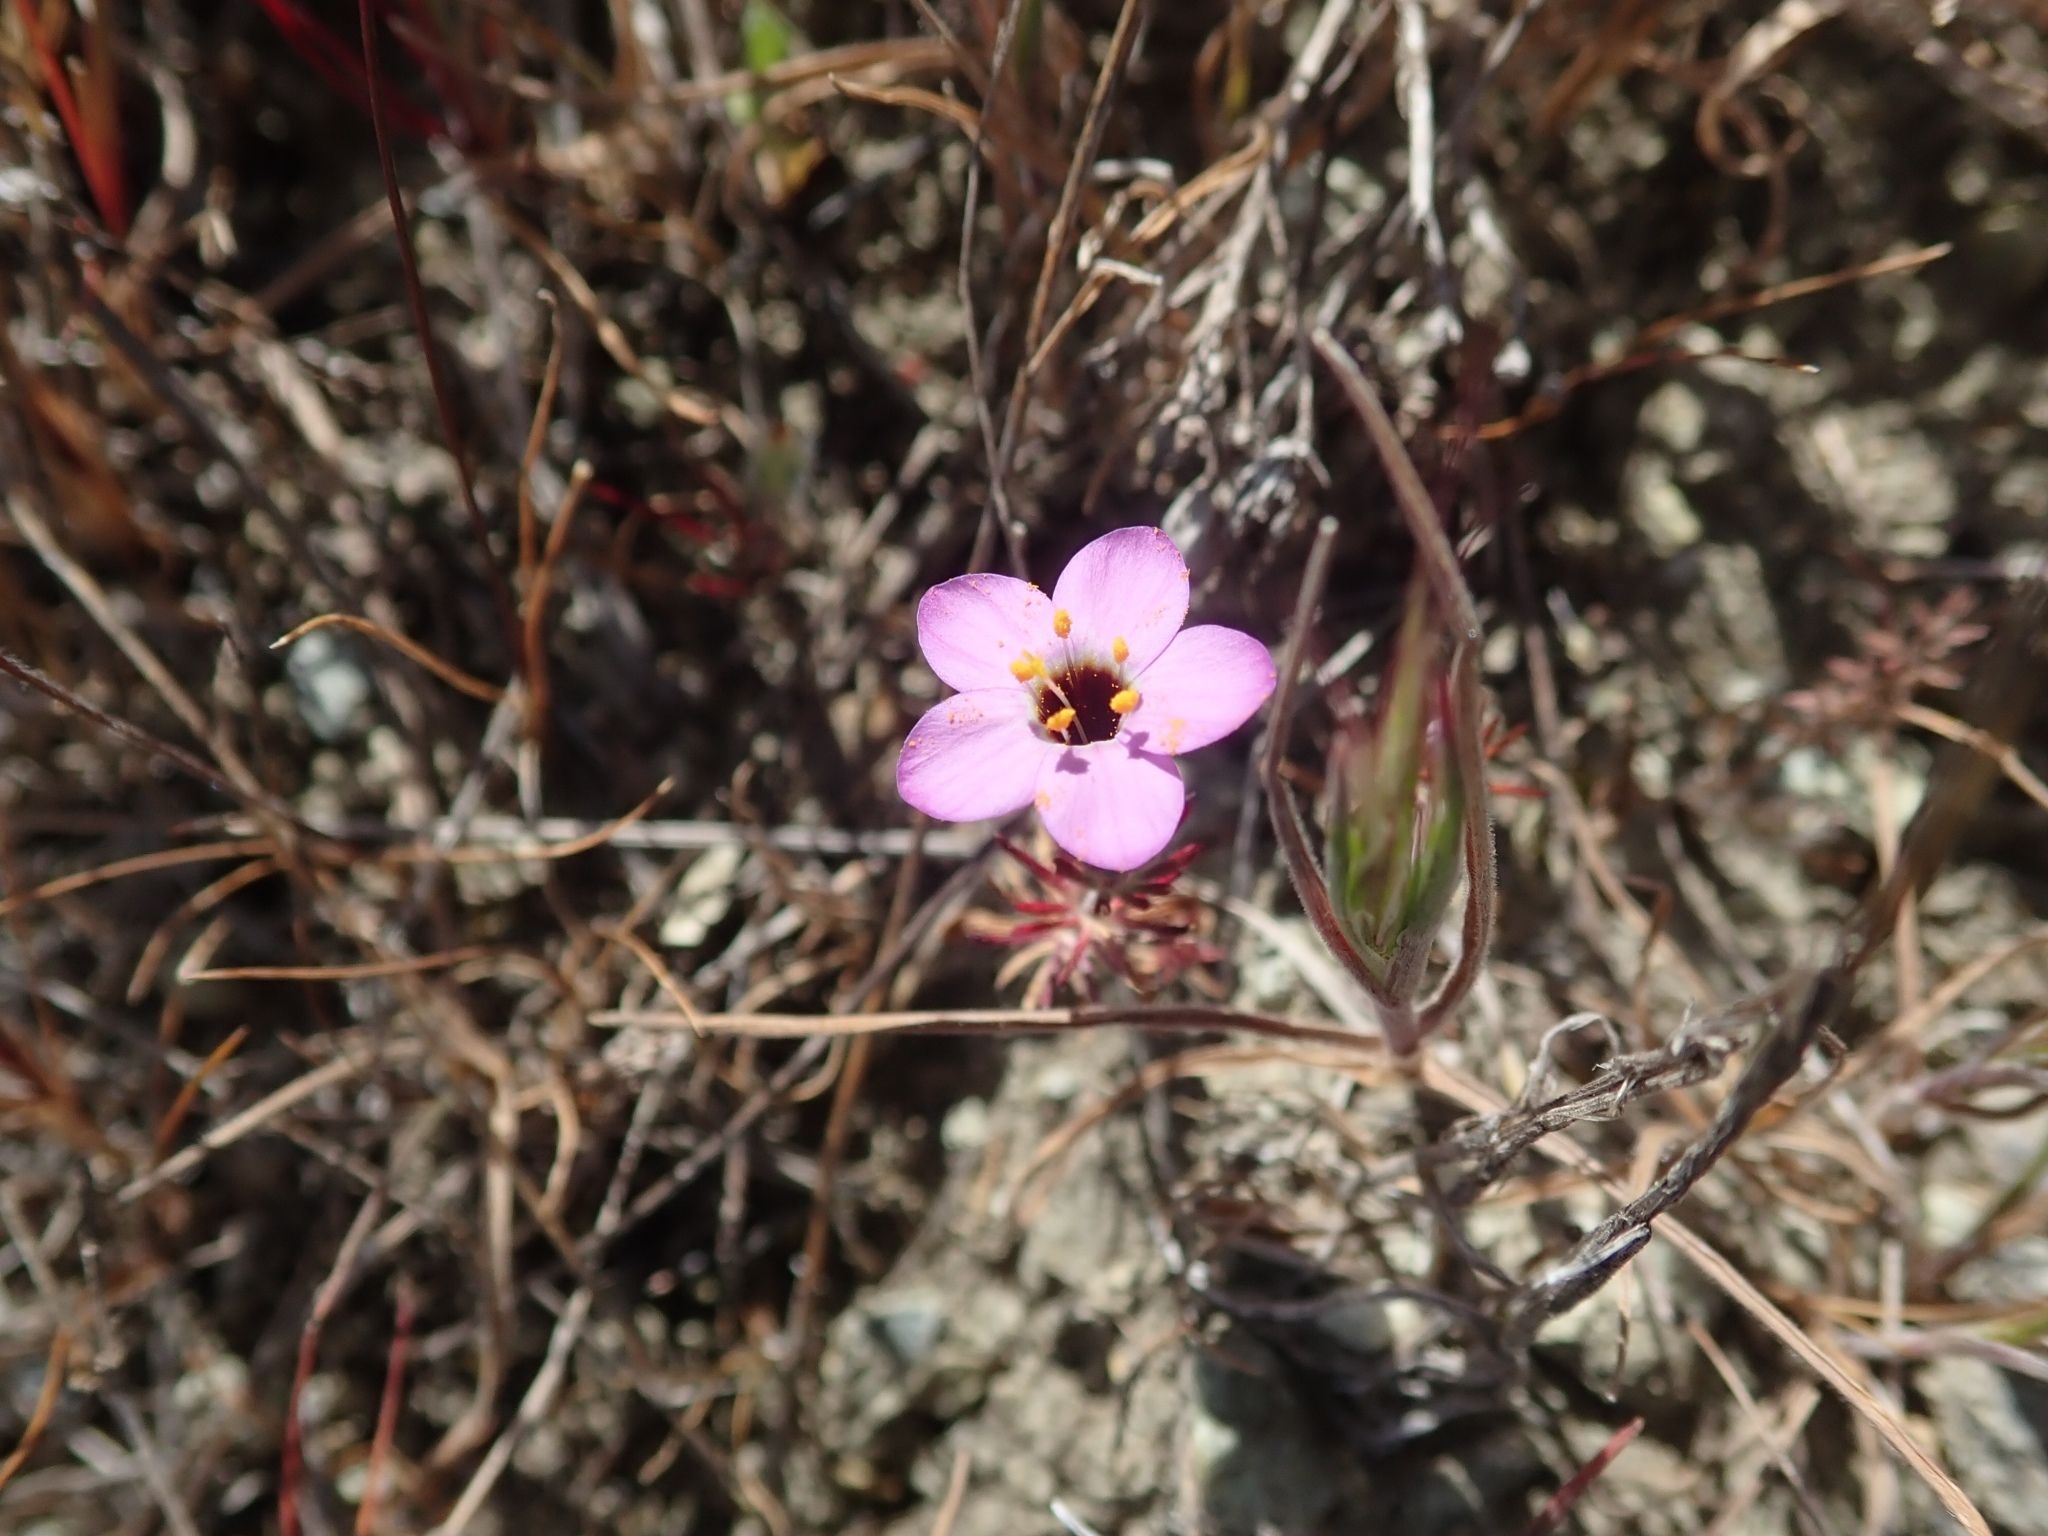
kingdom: Plantae
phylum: Tracheophyta
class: Magnoliopsida
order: Ericales
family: Polemoniaceae
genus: Leptosiphon
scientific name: Leptosiphon ambiguus
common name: Serpentine linanthus
